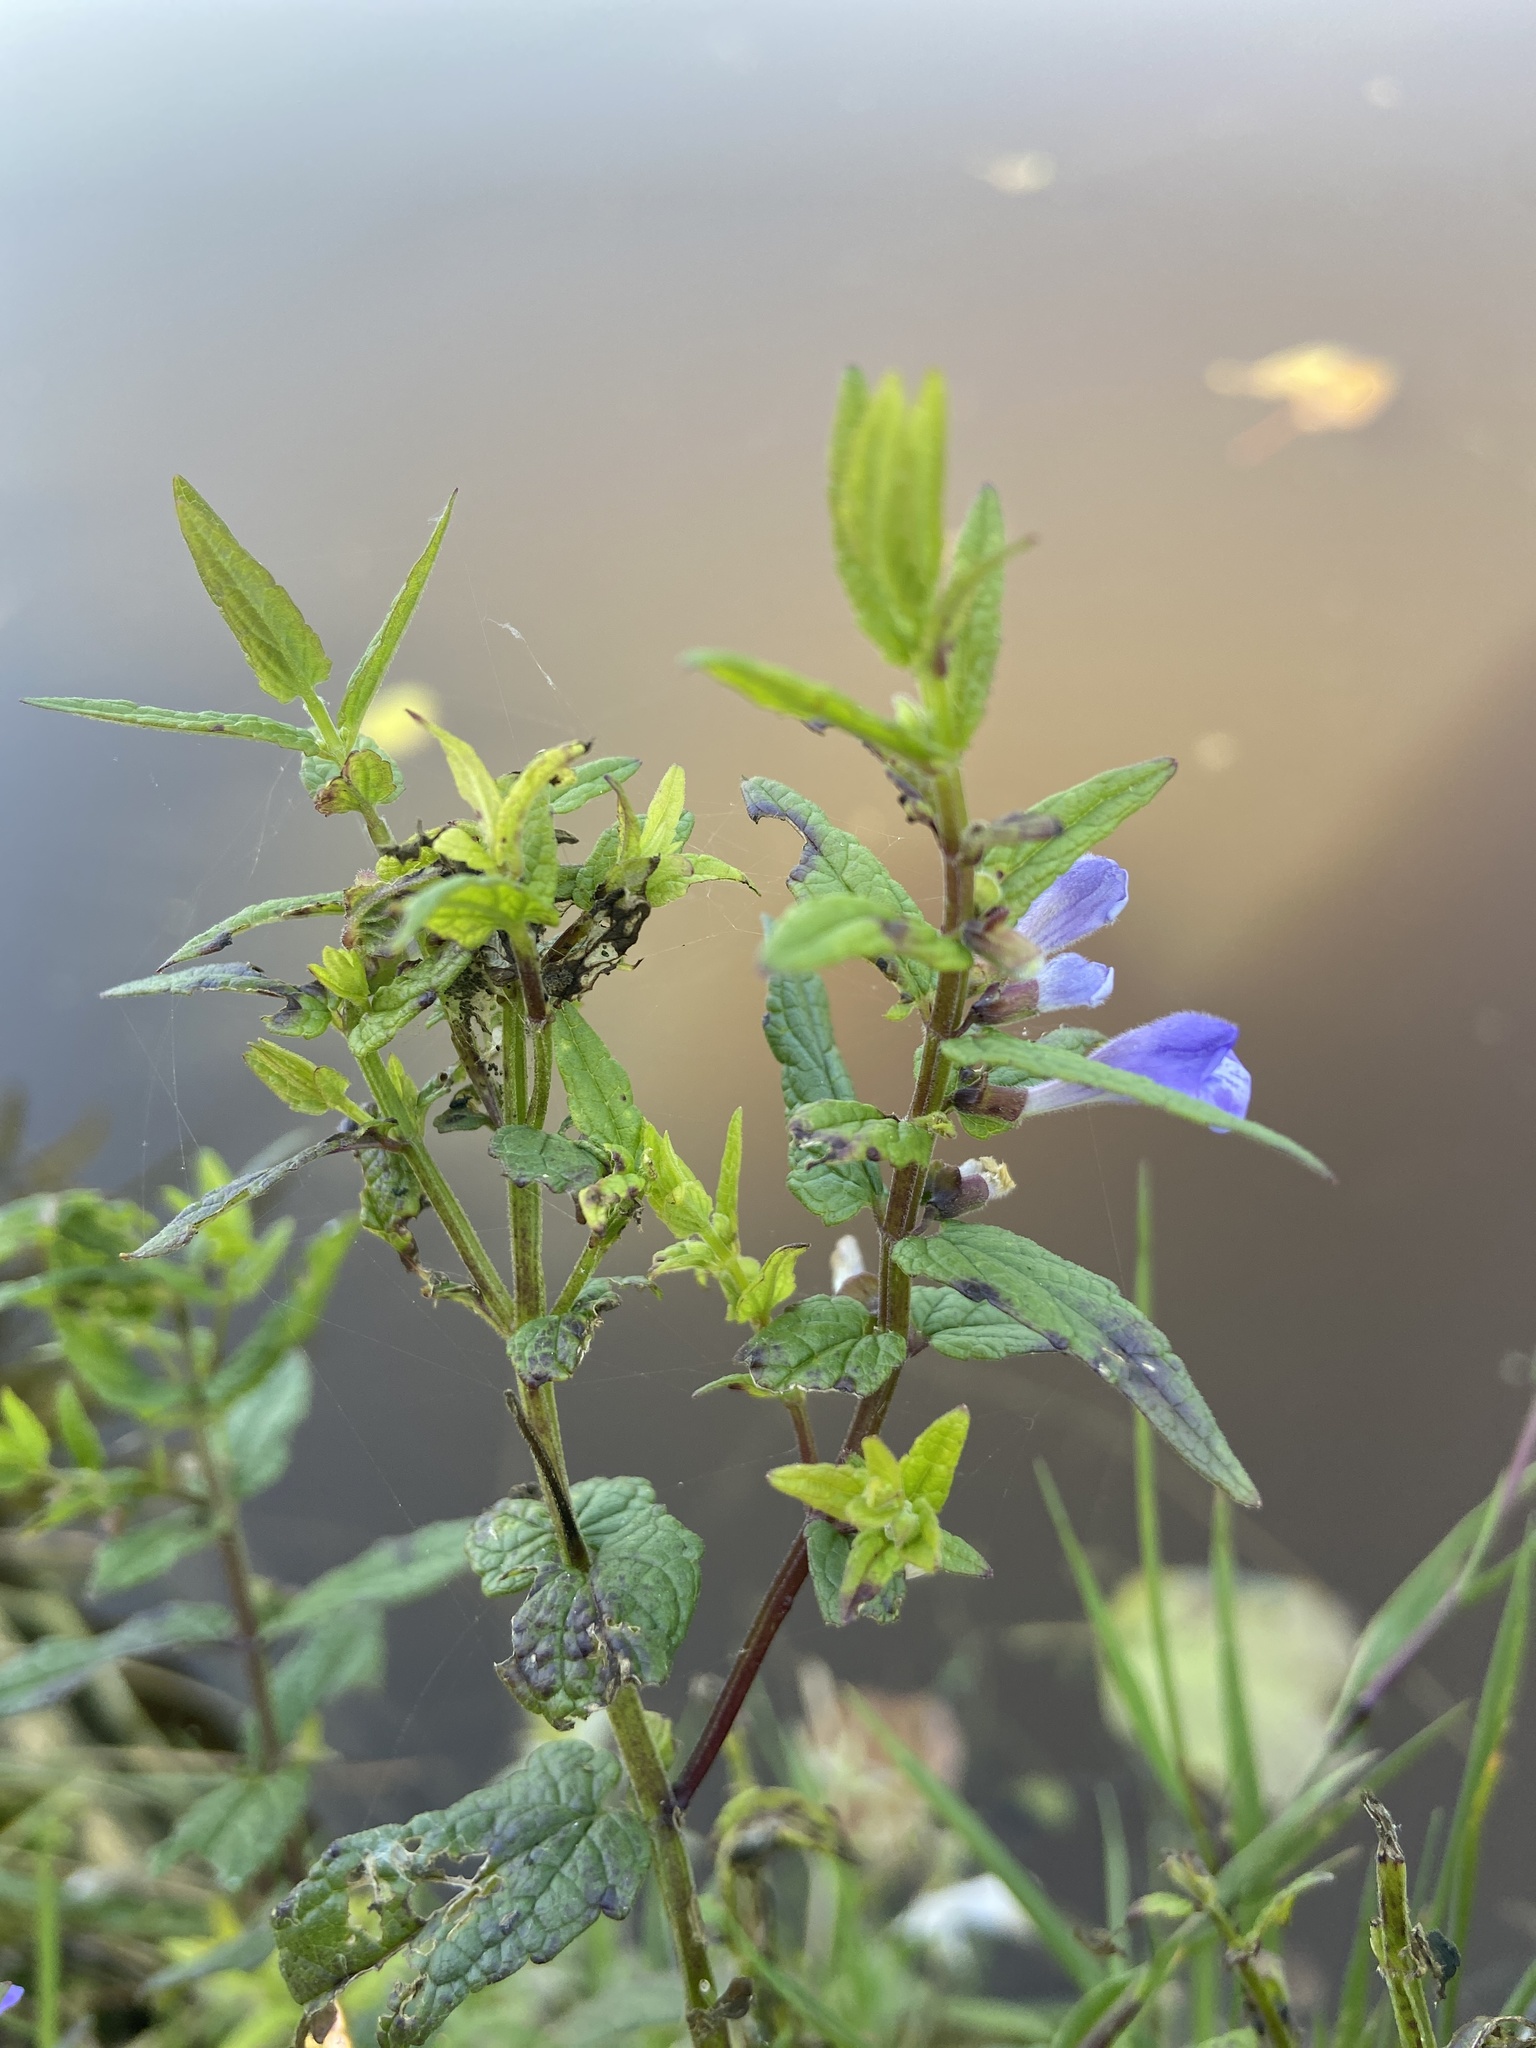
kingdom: Plantae
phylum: Tracheophyta
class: Magnoliopsida
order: Lamiales
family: Lamiaceae
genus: Scutellaria
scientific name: Scutellaria galericulata
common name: Skullcap
